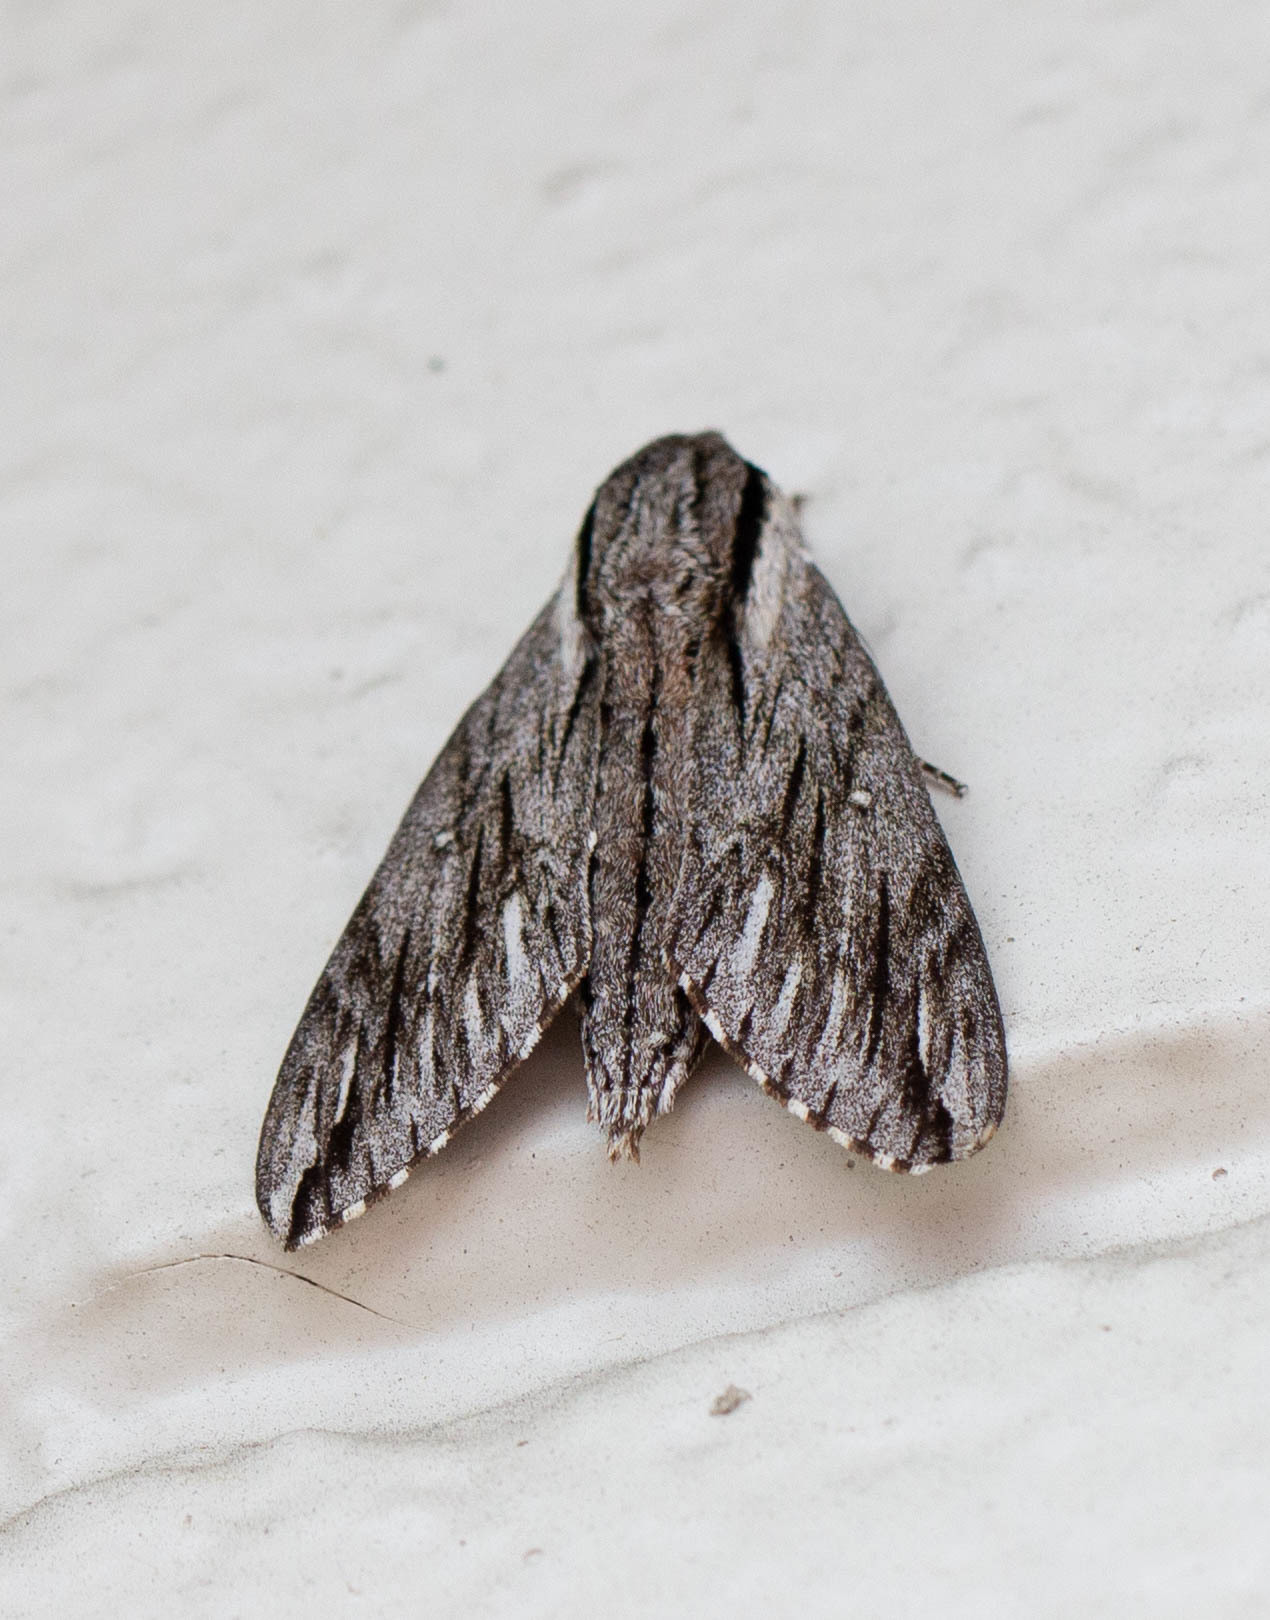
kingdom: Animalia
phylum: Arthropoda
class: Insecta
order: Lepidoptera
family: Sphingidae
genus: Paratrea
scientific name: Paratrea plebeja
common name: Plebian sphinx
